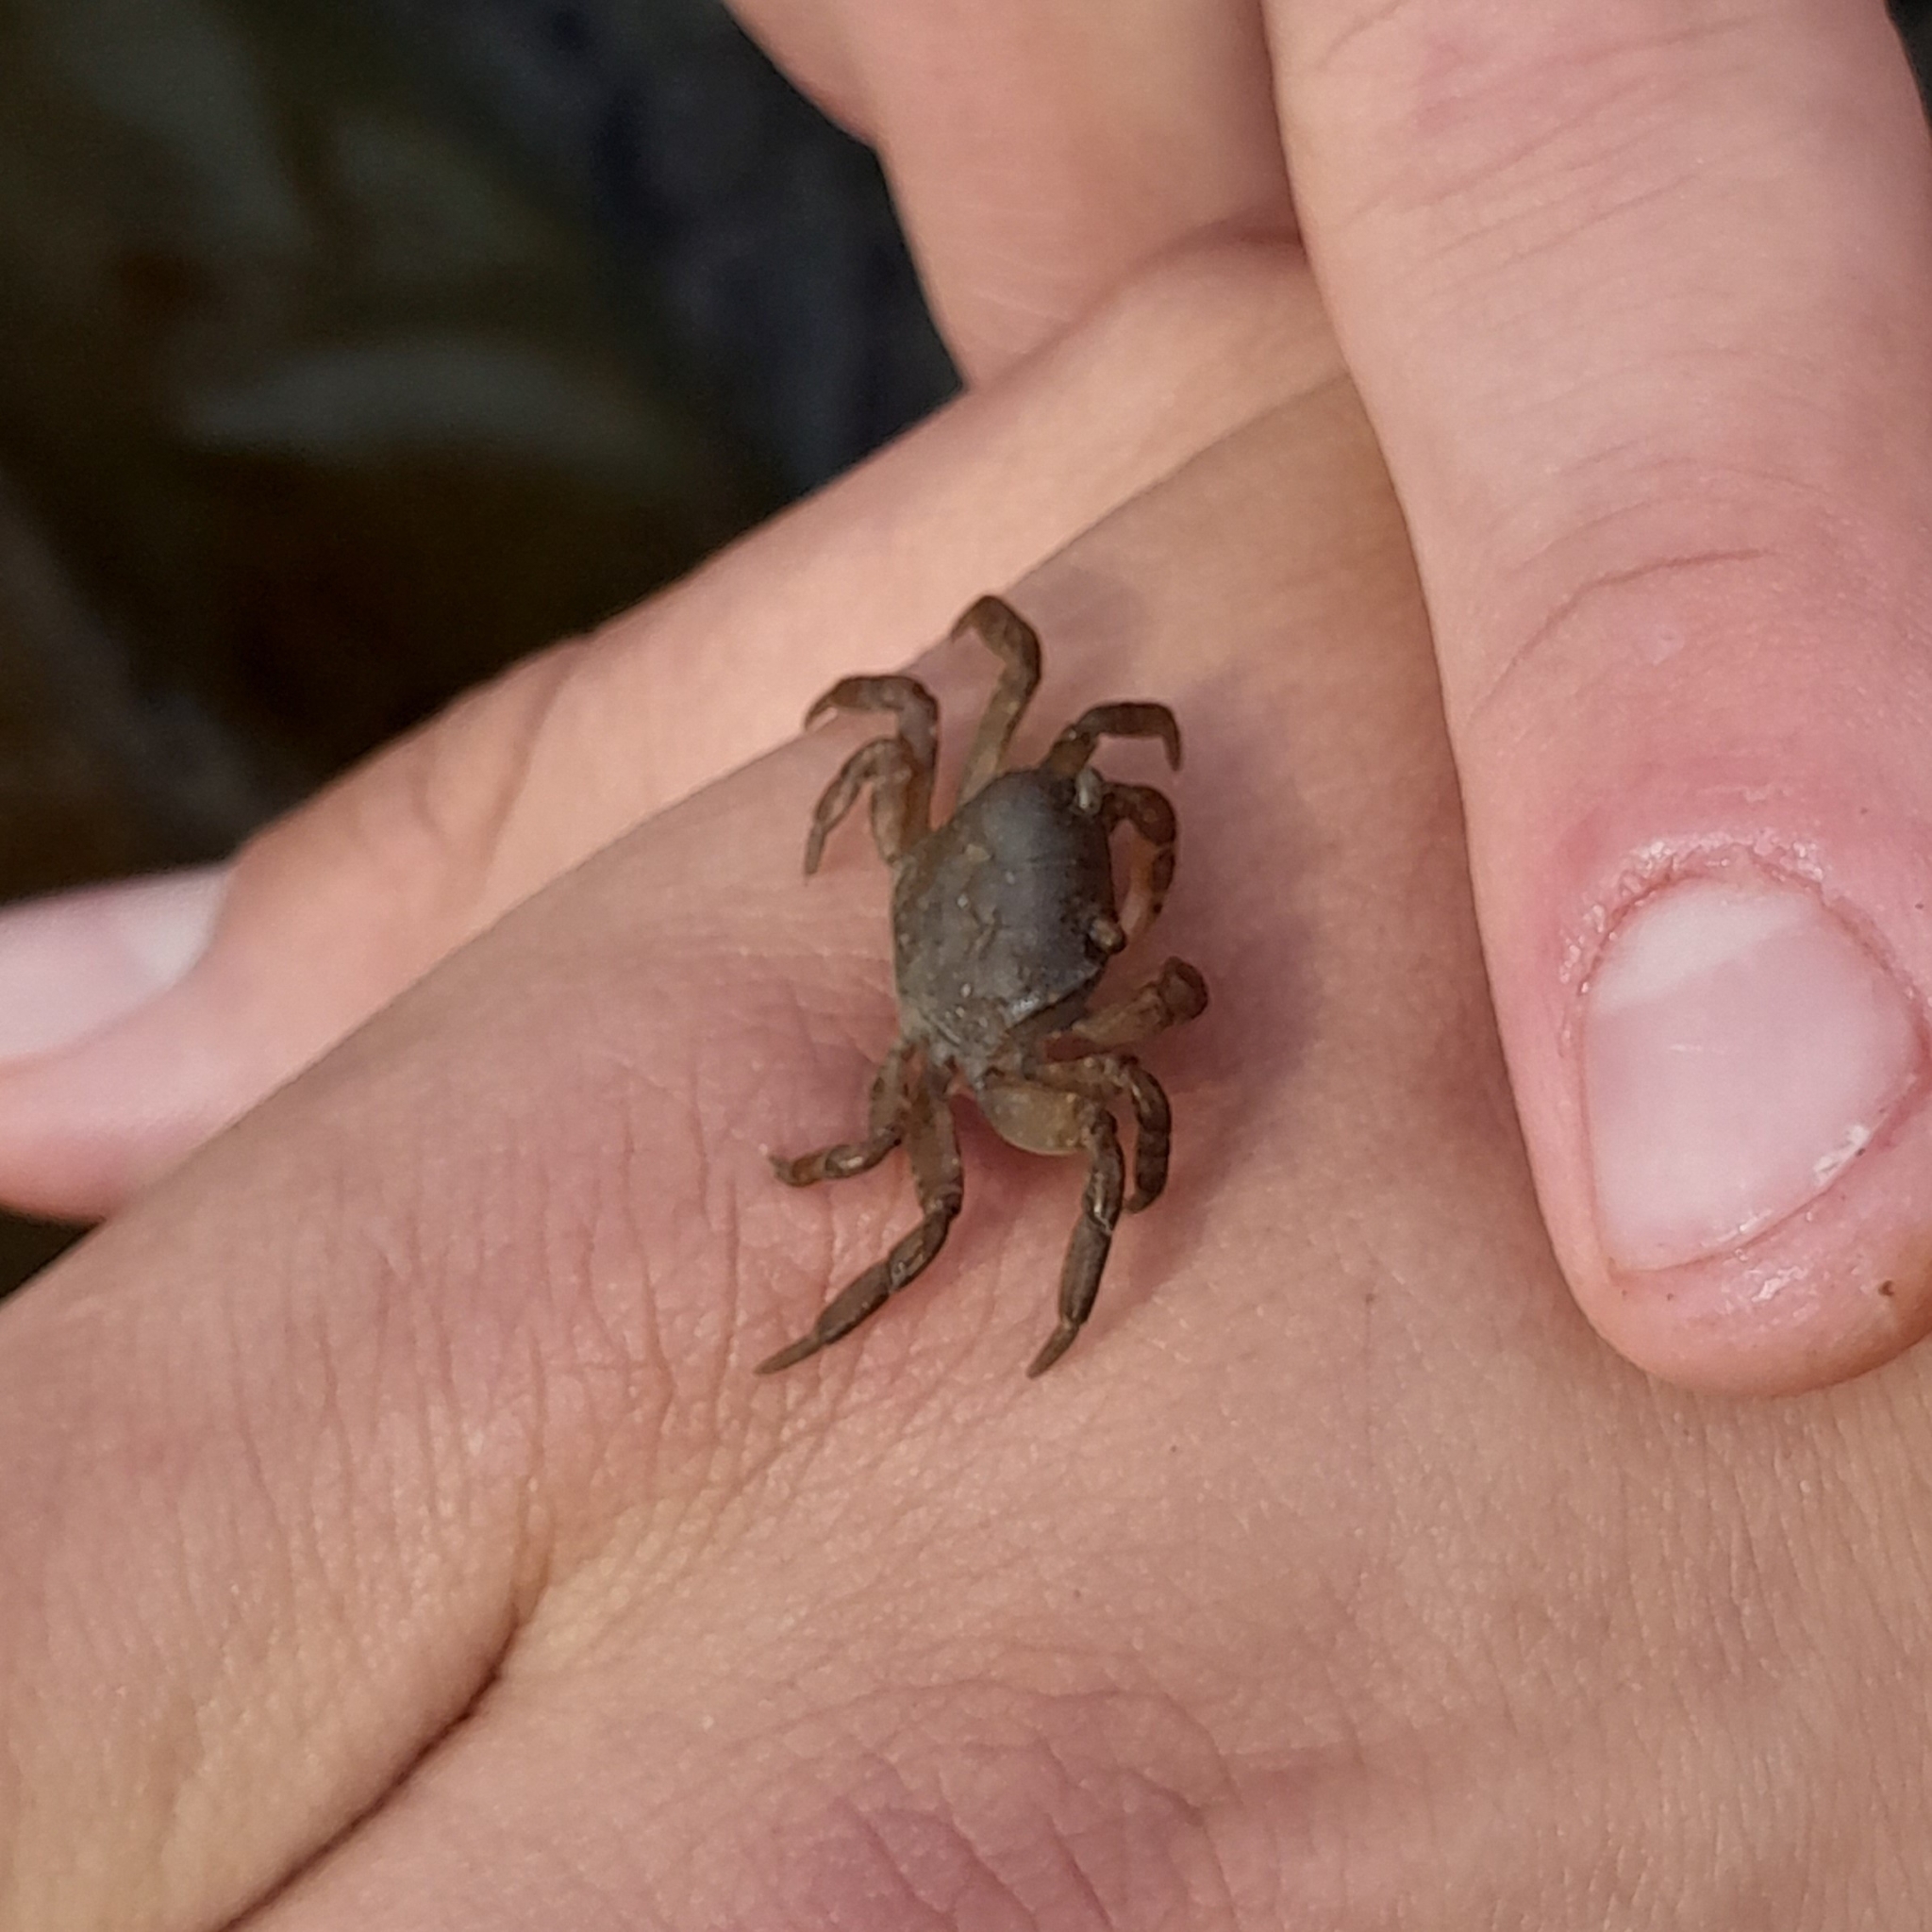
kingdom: Animalia
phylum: Arthropoda
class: Malacostraca
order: Decapoda
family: Varunidae
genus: Cyclograpsus
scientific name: Cyclograpsus lavauxi
